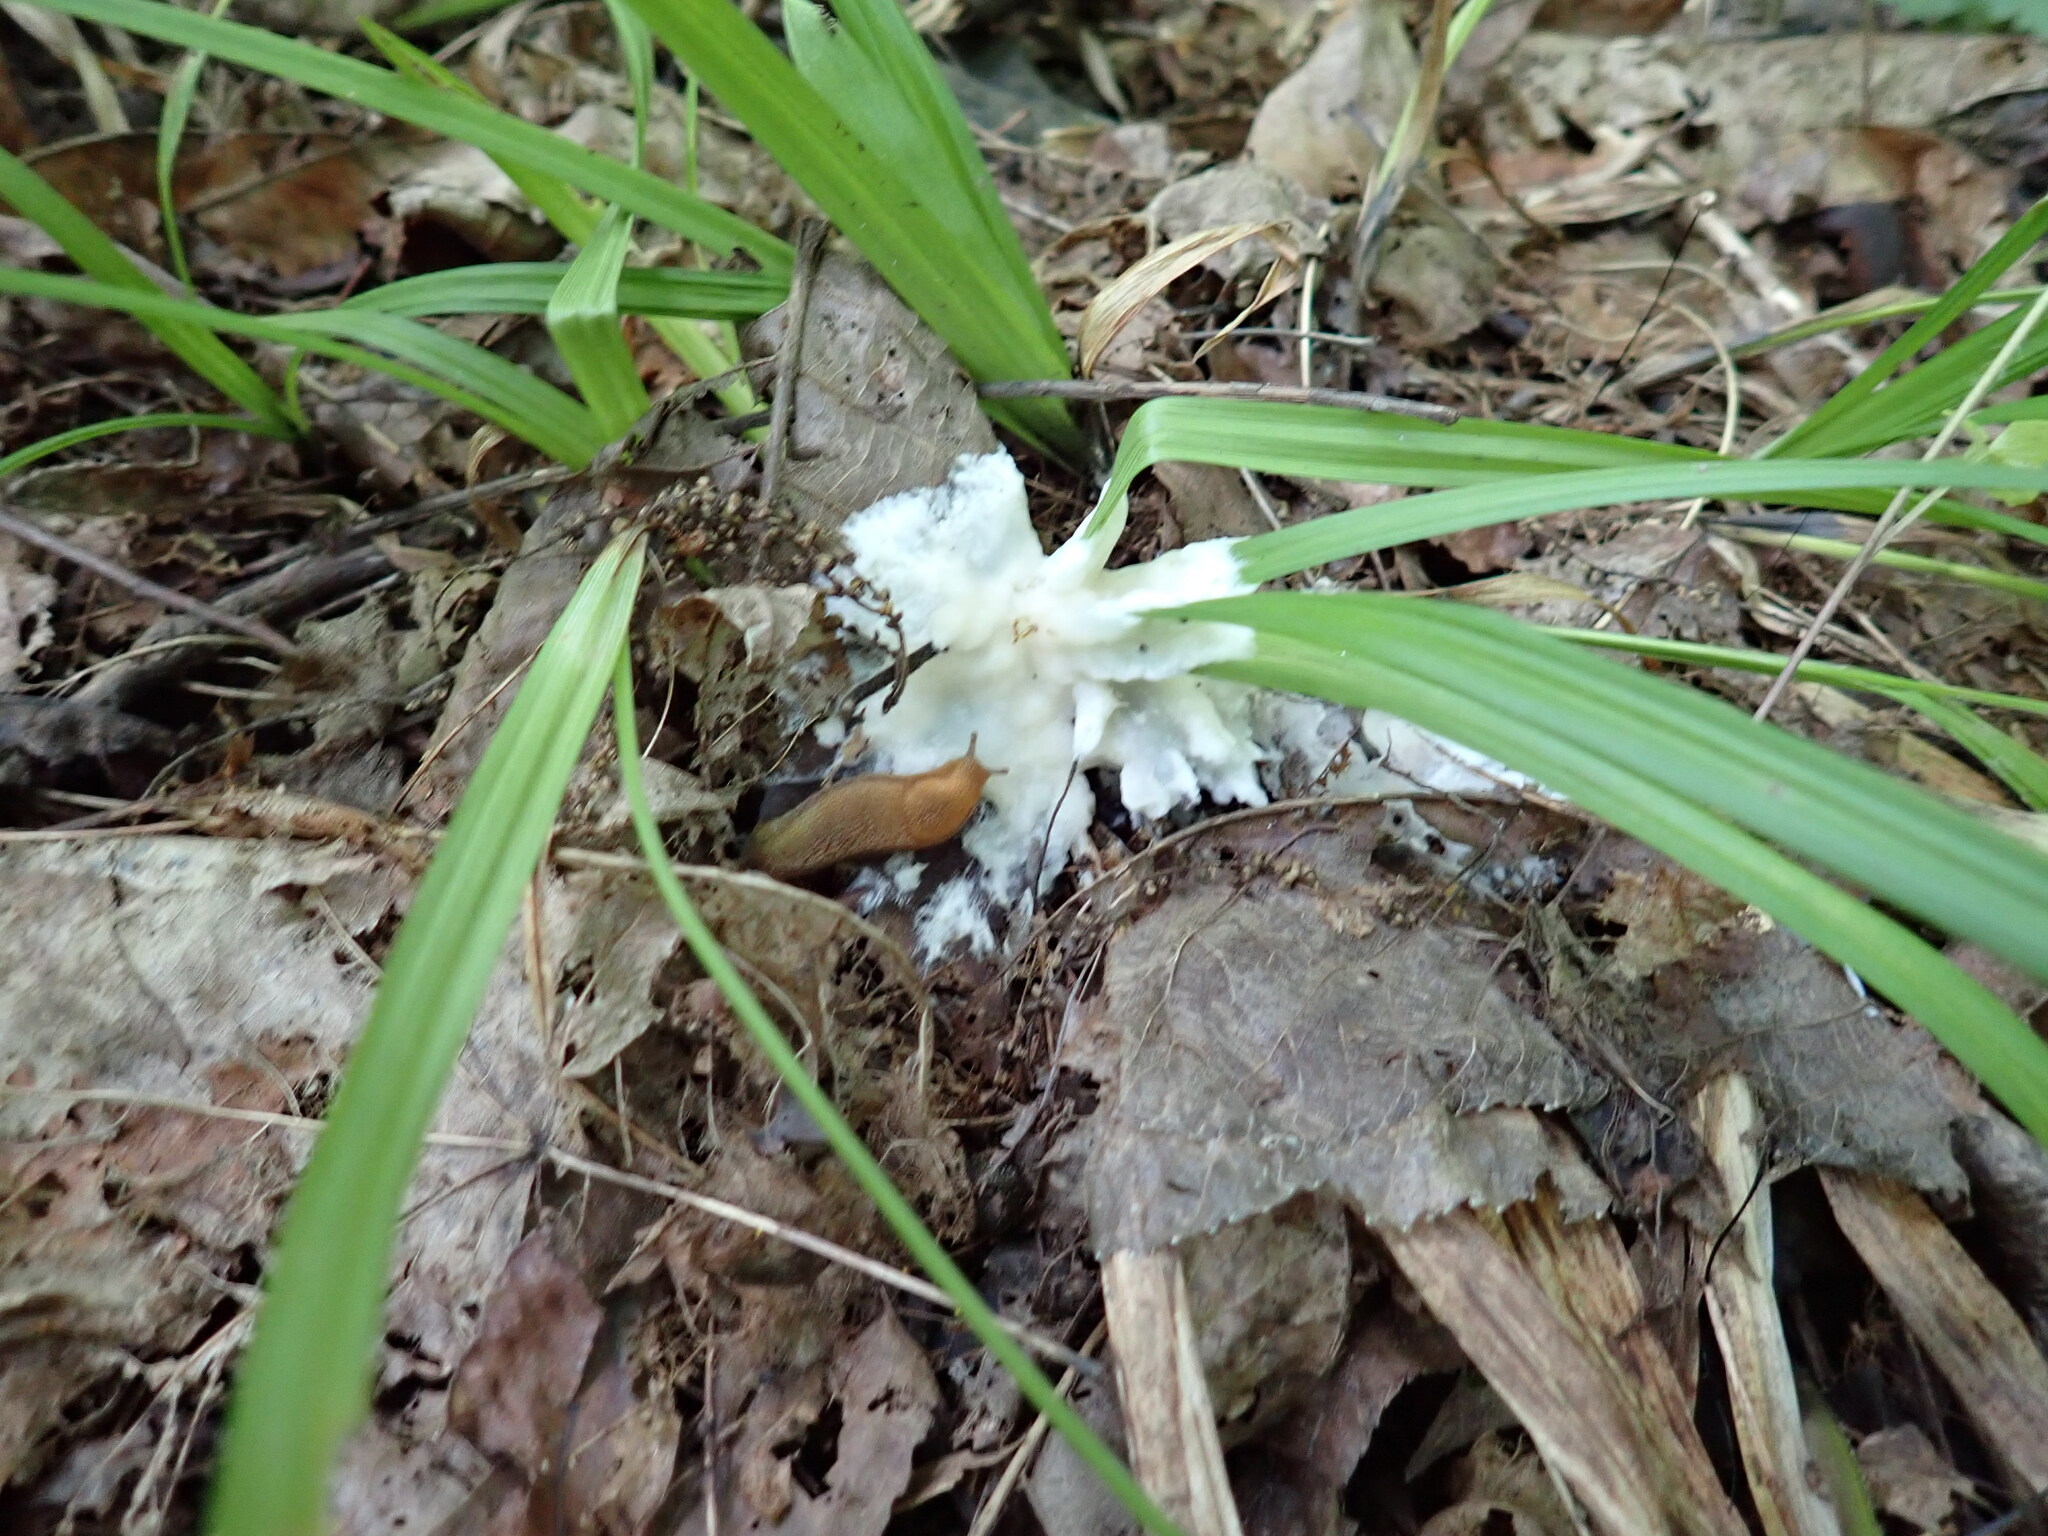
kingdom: Fungi
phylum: Basidiomycota
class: Agaricomycetes
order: Sebacinales
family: Sebacinaceae
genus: Sebacina
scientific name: Sebacina incrustans
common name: Enveloping crust
